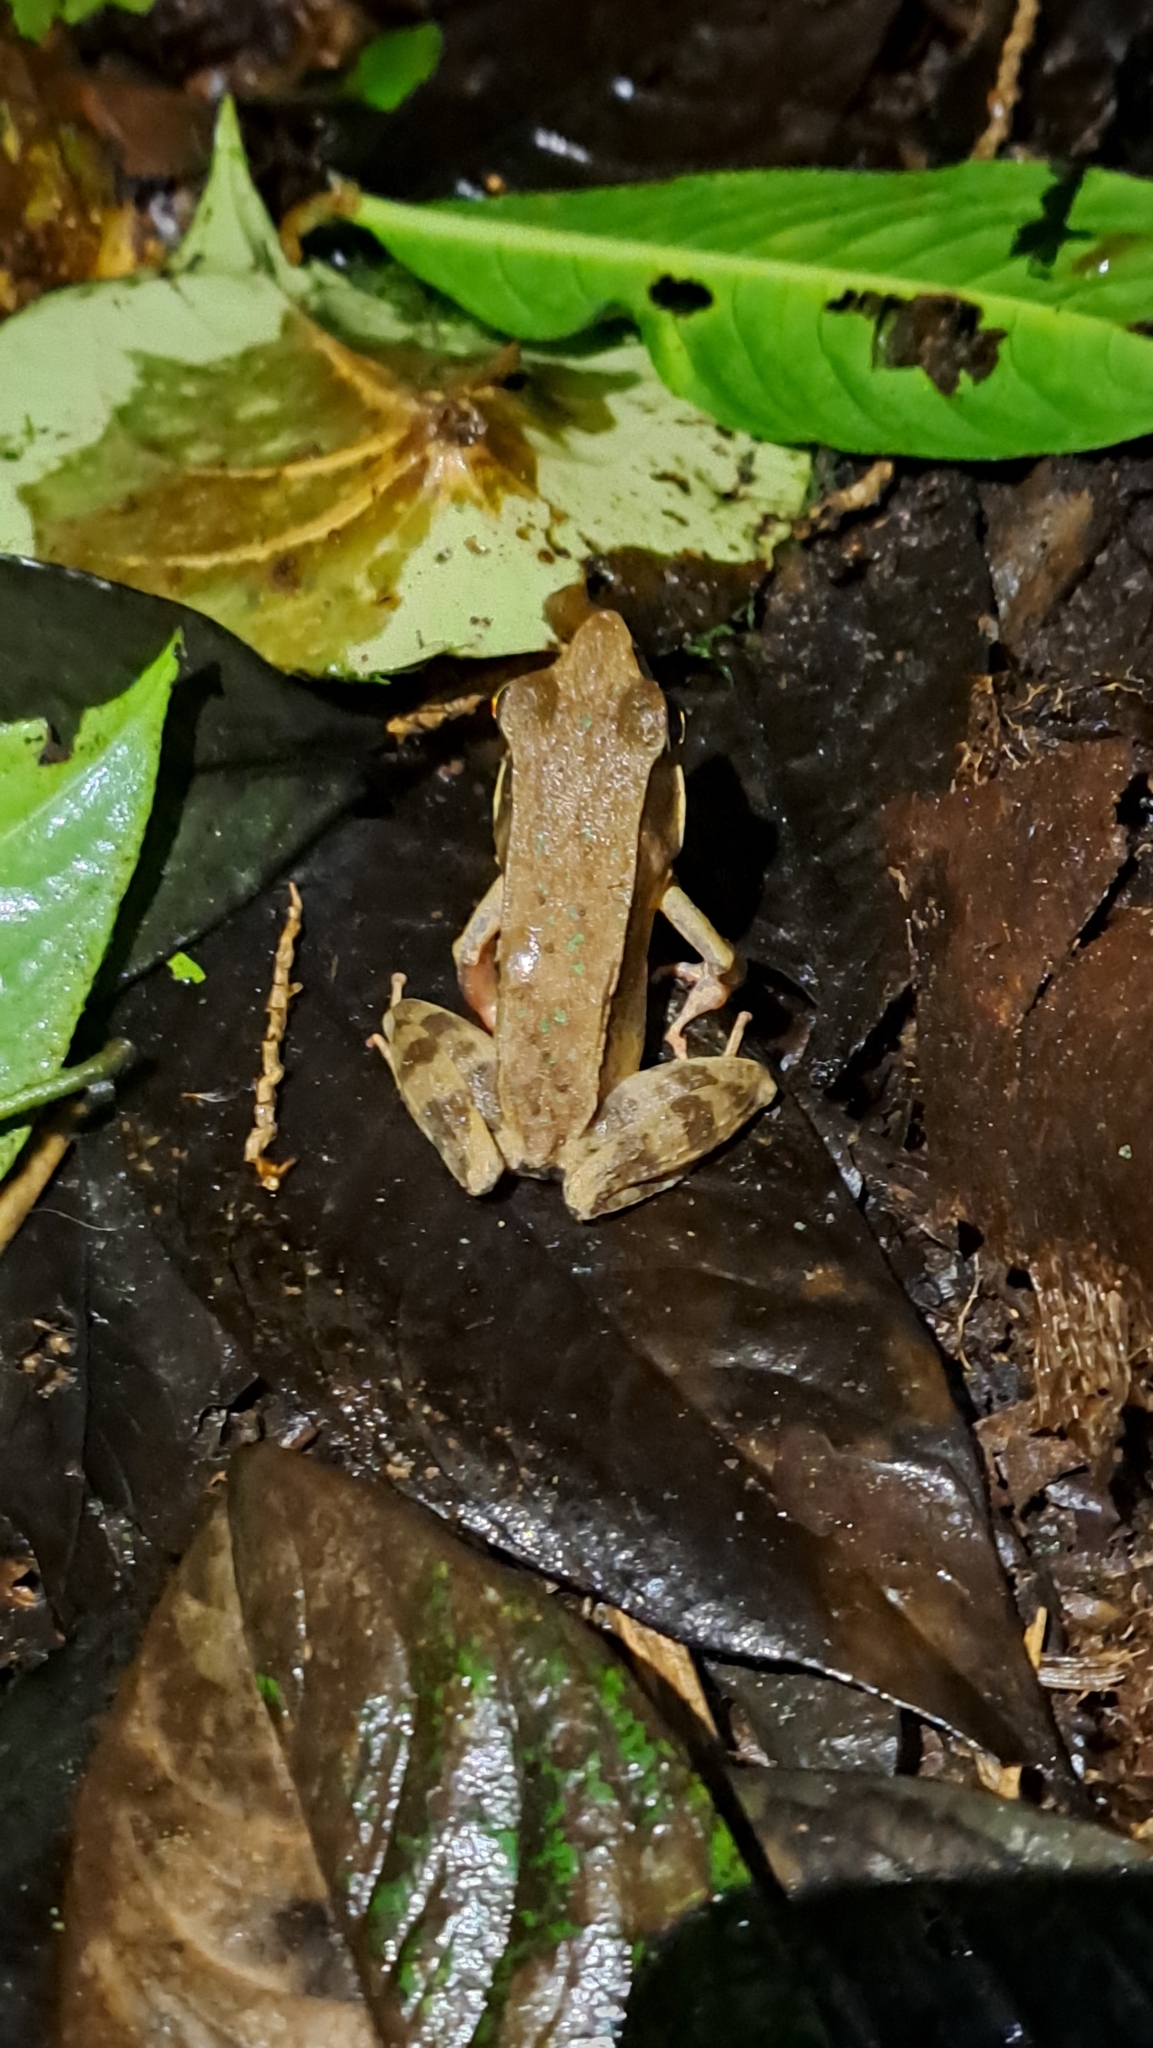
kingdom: Animalia
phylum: Chordata
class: Amphibia
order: Anura
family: Ranidae
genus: Lithobates
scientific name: Lithobates warszewitschii
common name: Warszewitsch's frog
